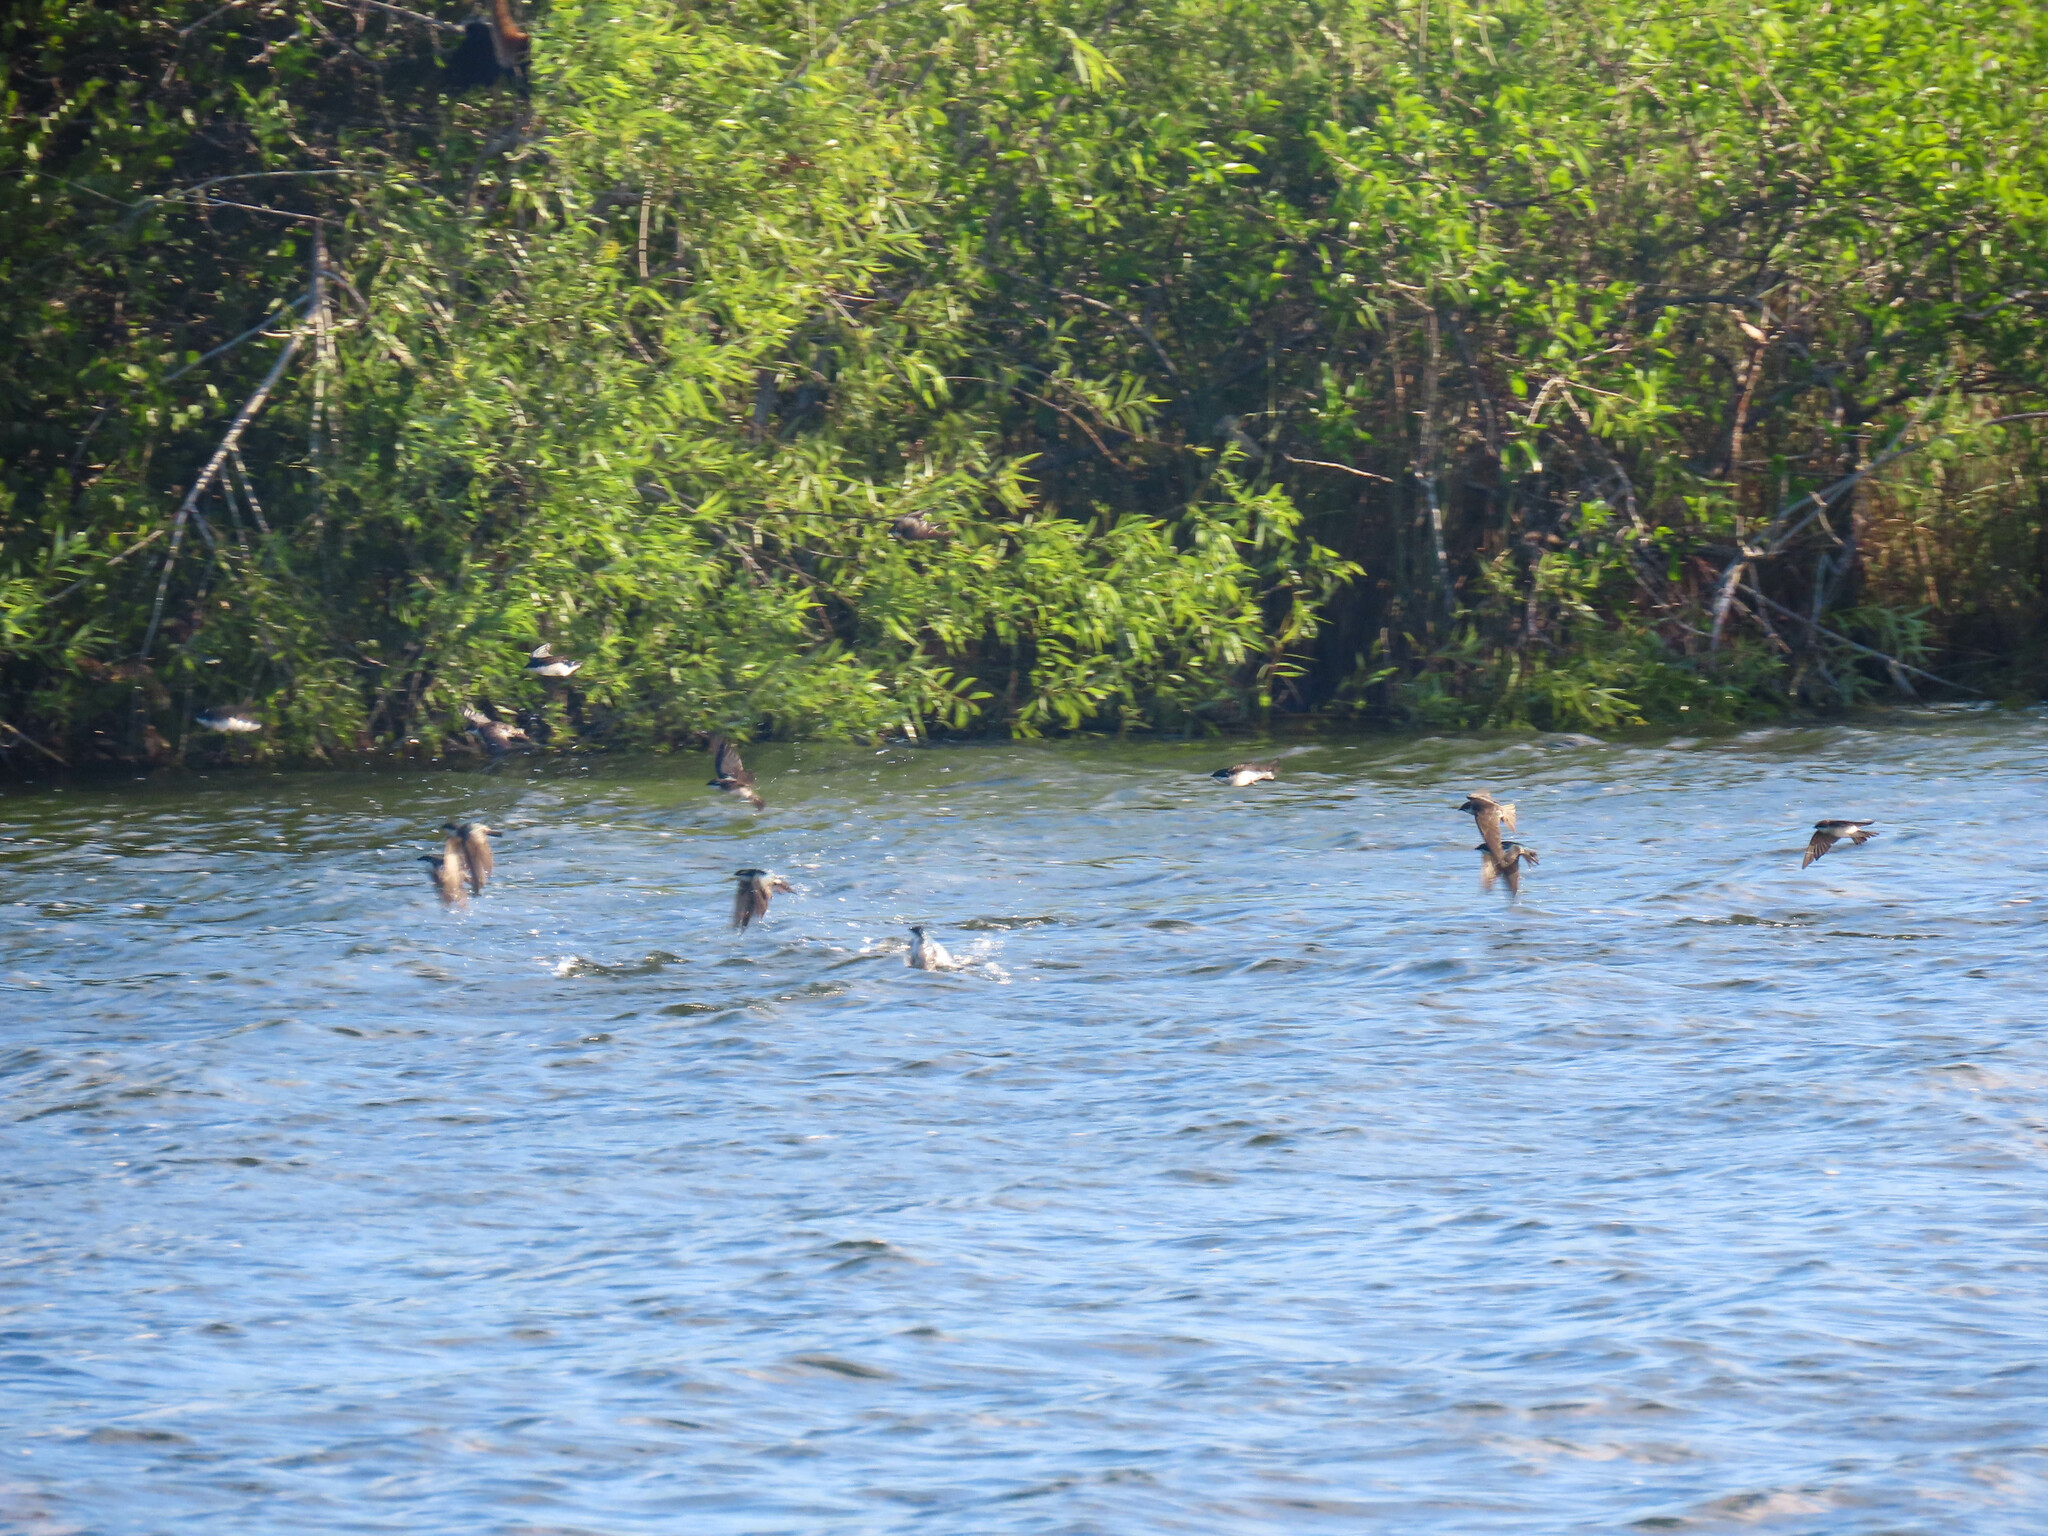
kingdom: Animalia
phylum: Chordata
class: Aves
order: Passeriformes
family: Hirundinidae
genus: Tachycineta
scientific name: Tachycineta bicolor
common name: Tree swallow
